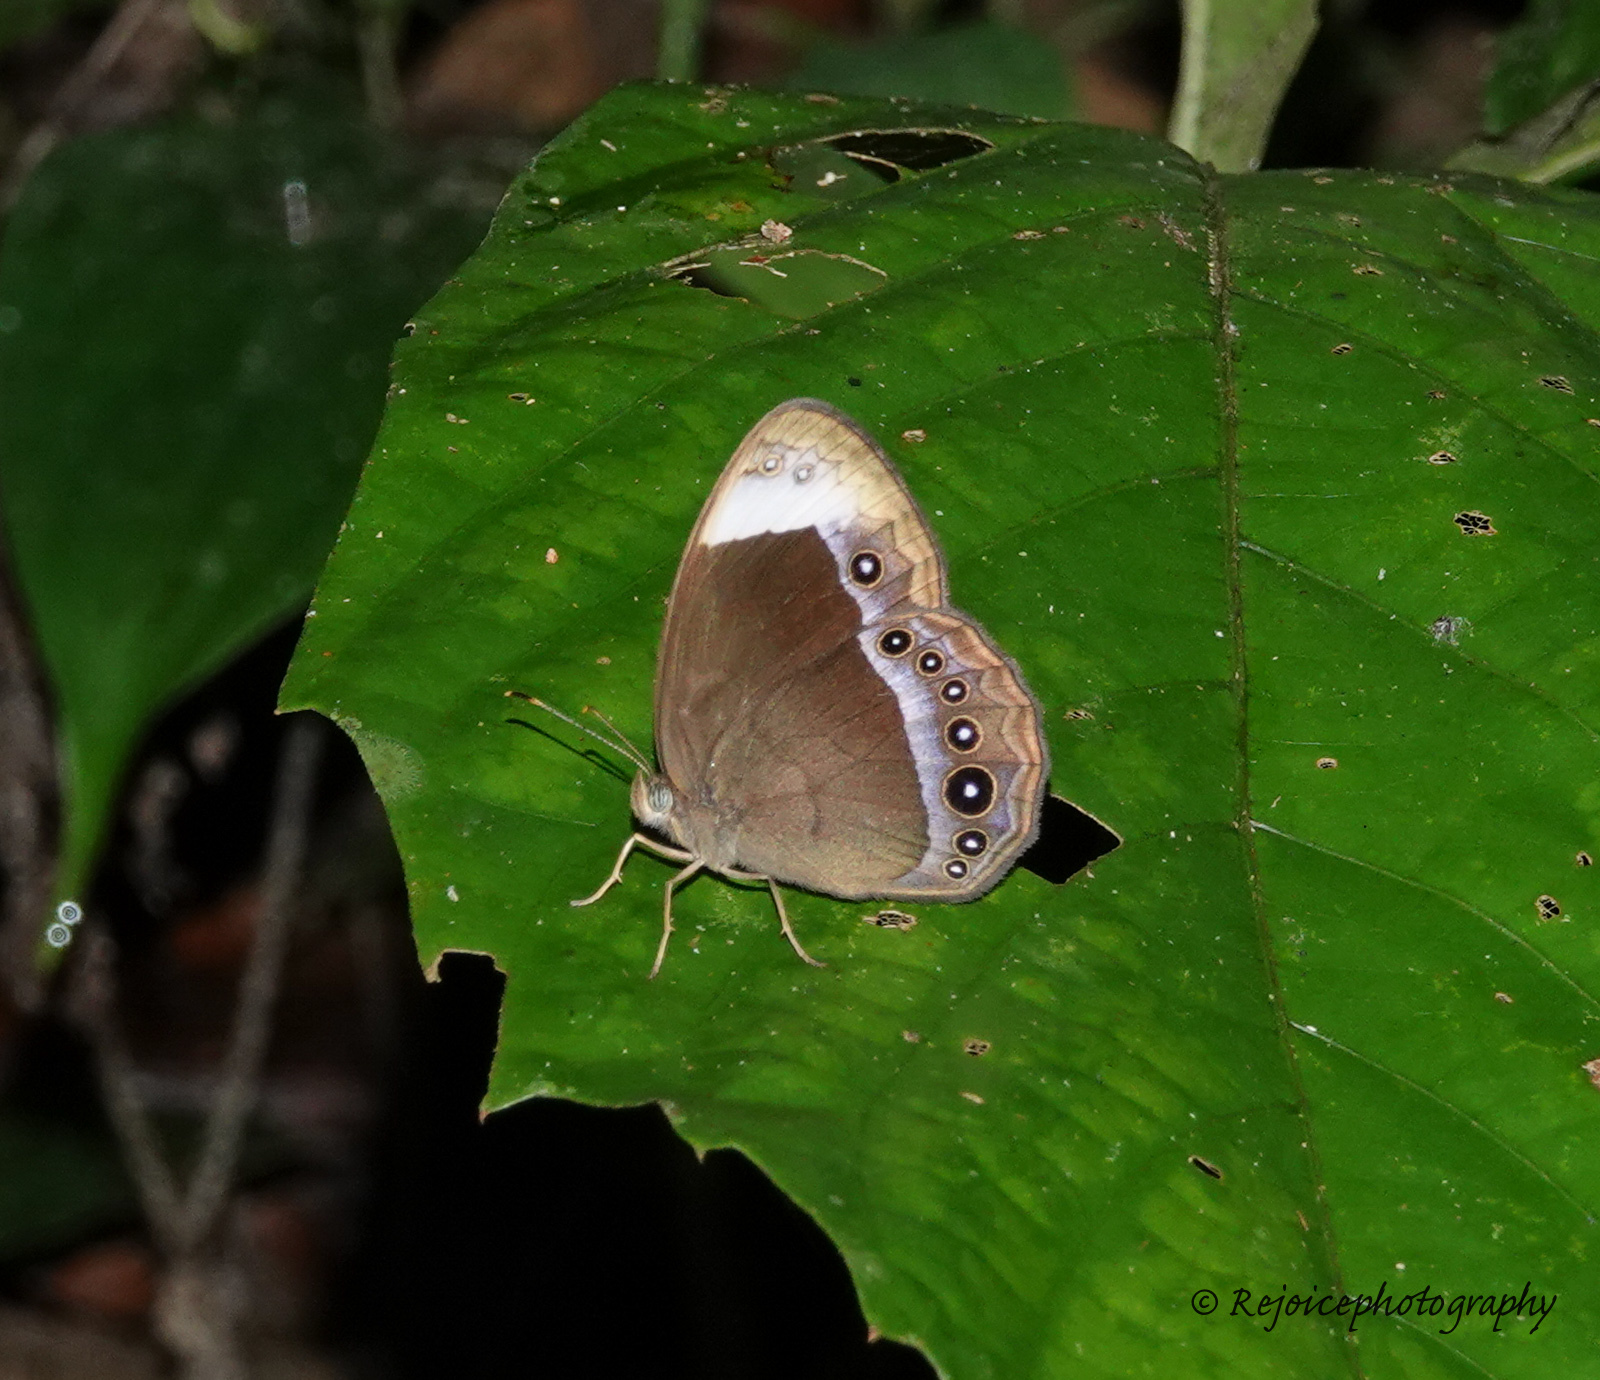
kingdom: Animalia
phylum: Arthropoda
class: Insecta
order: Lepidoptera
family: Nymphalidae
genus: Mycalesis
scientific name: Mycalesis anaxias
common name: White-bar bushbrown
